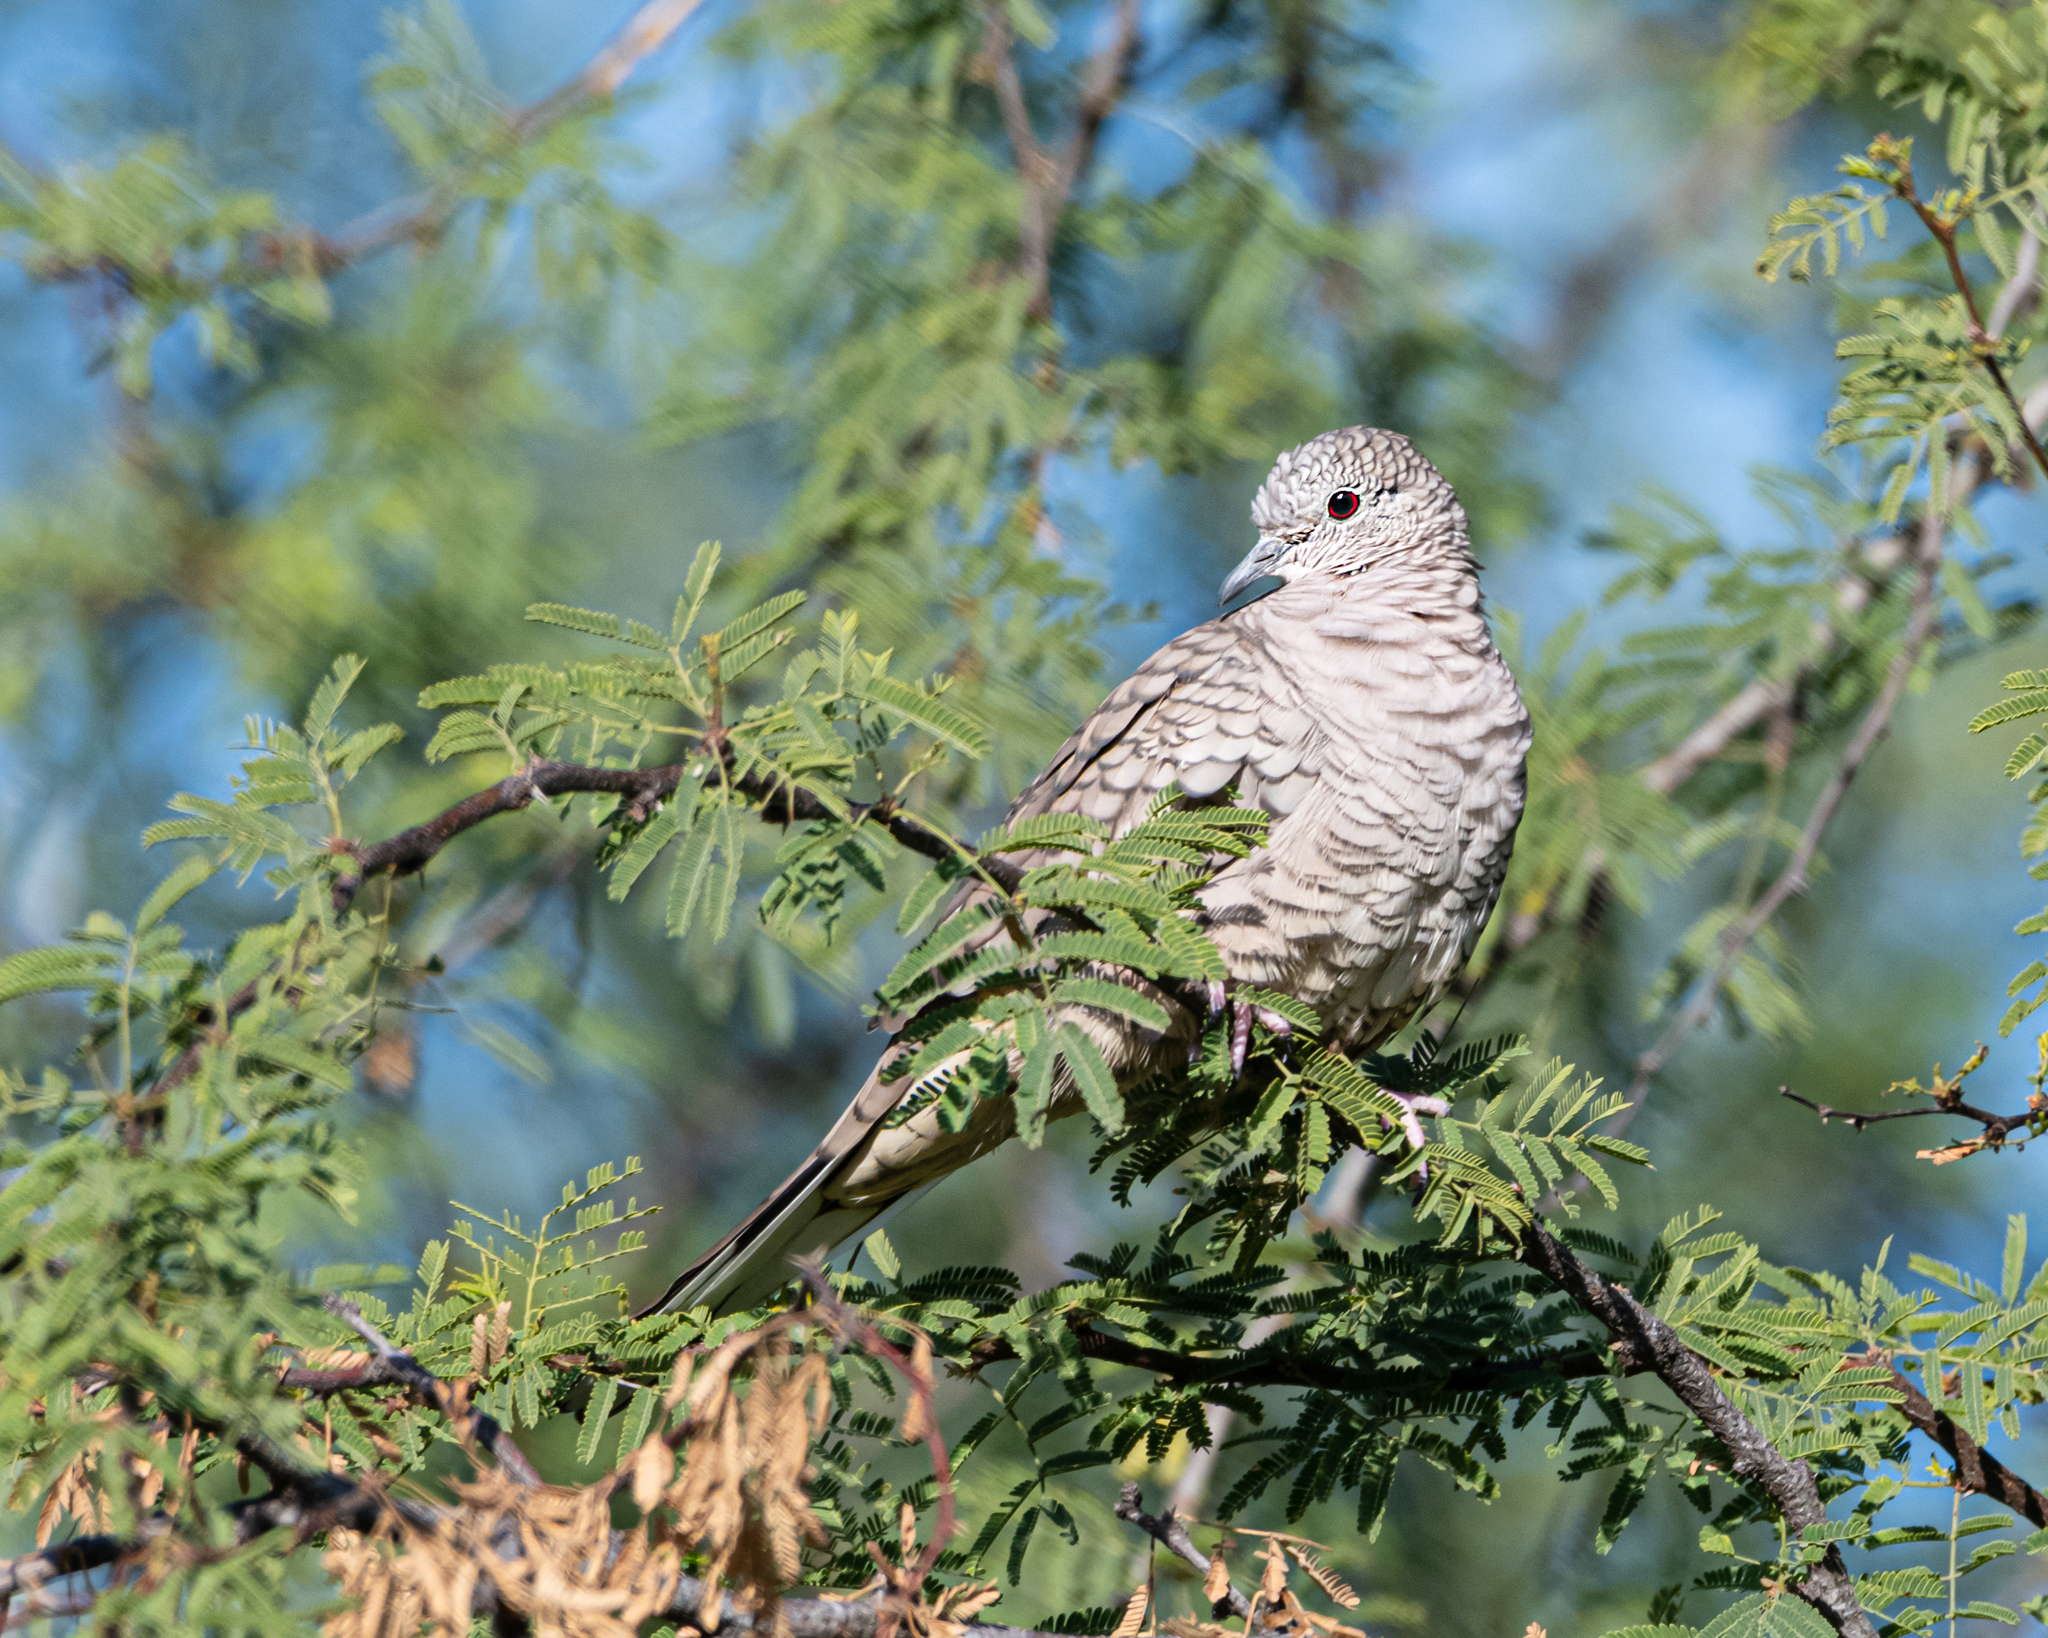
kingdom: Animalia
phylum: Chordata
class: Aves
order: Columbiformes
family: Columbidae
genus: Columbina
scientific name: Columbina inca
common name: Inca dove
